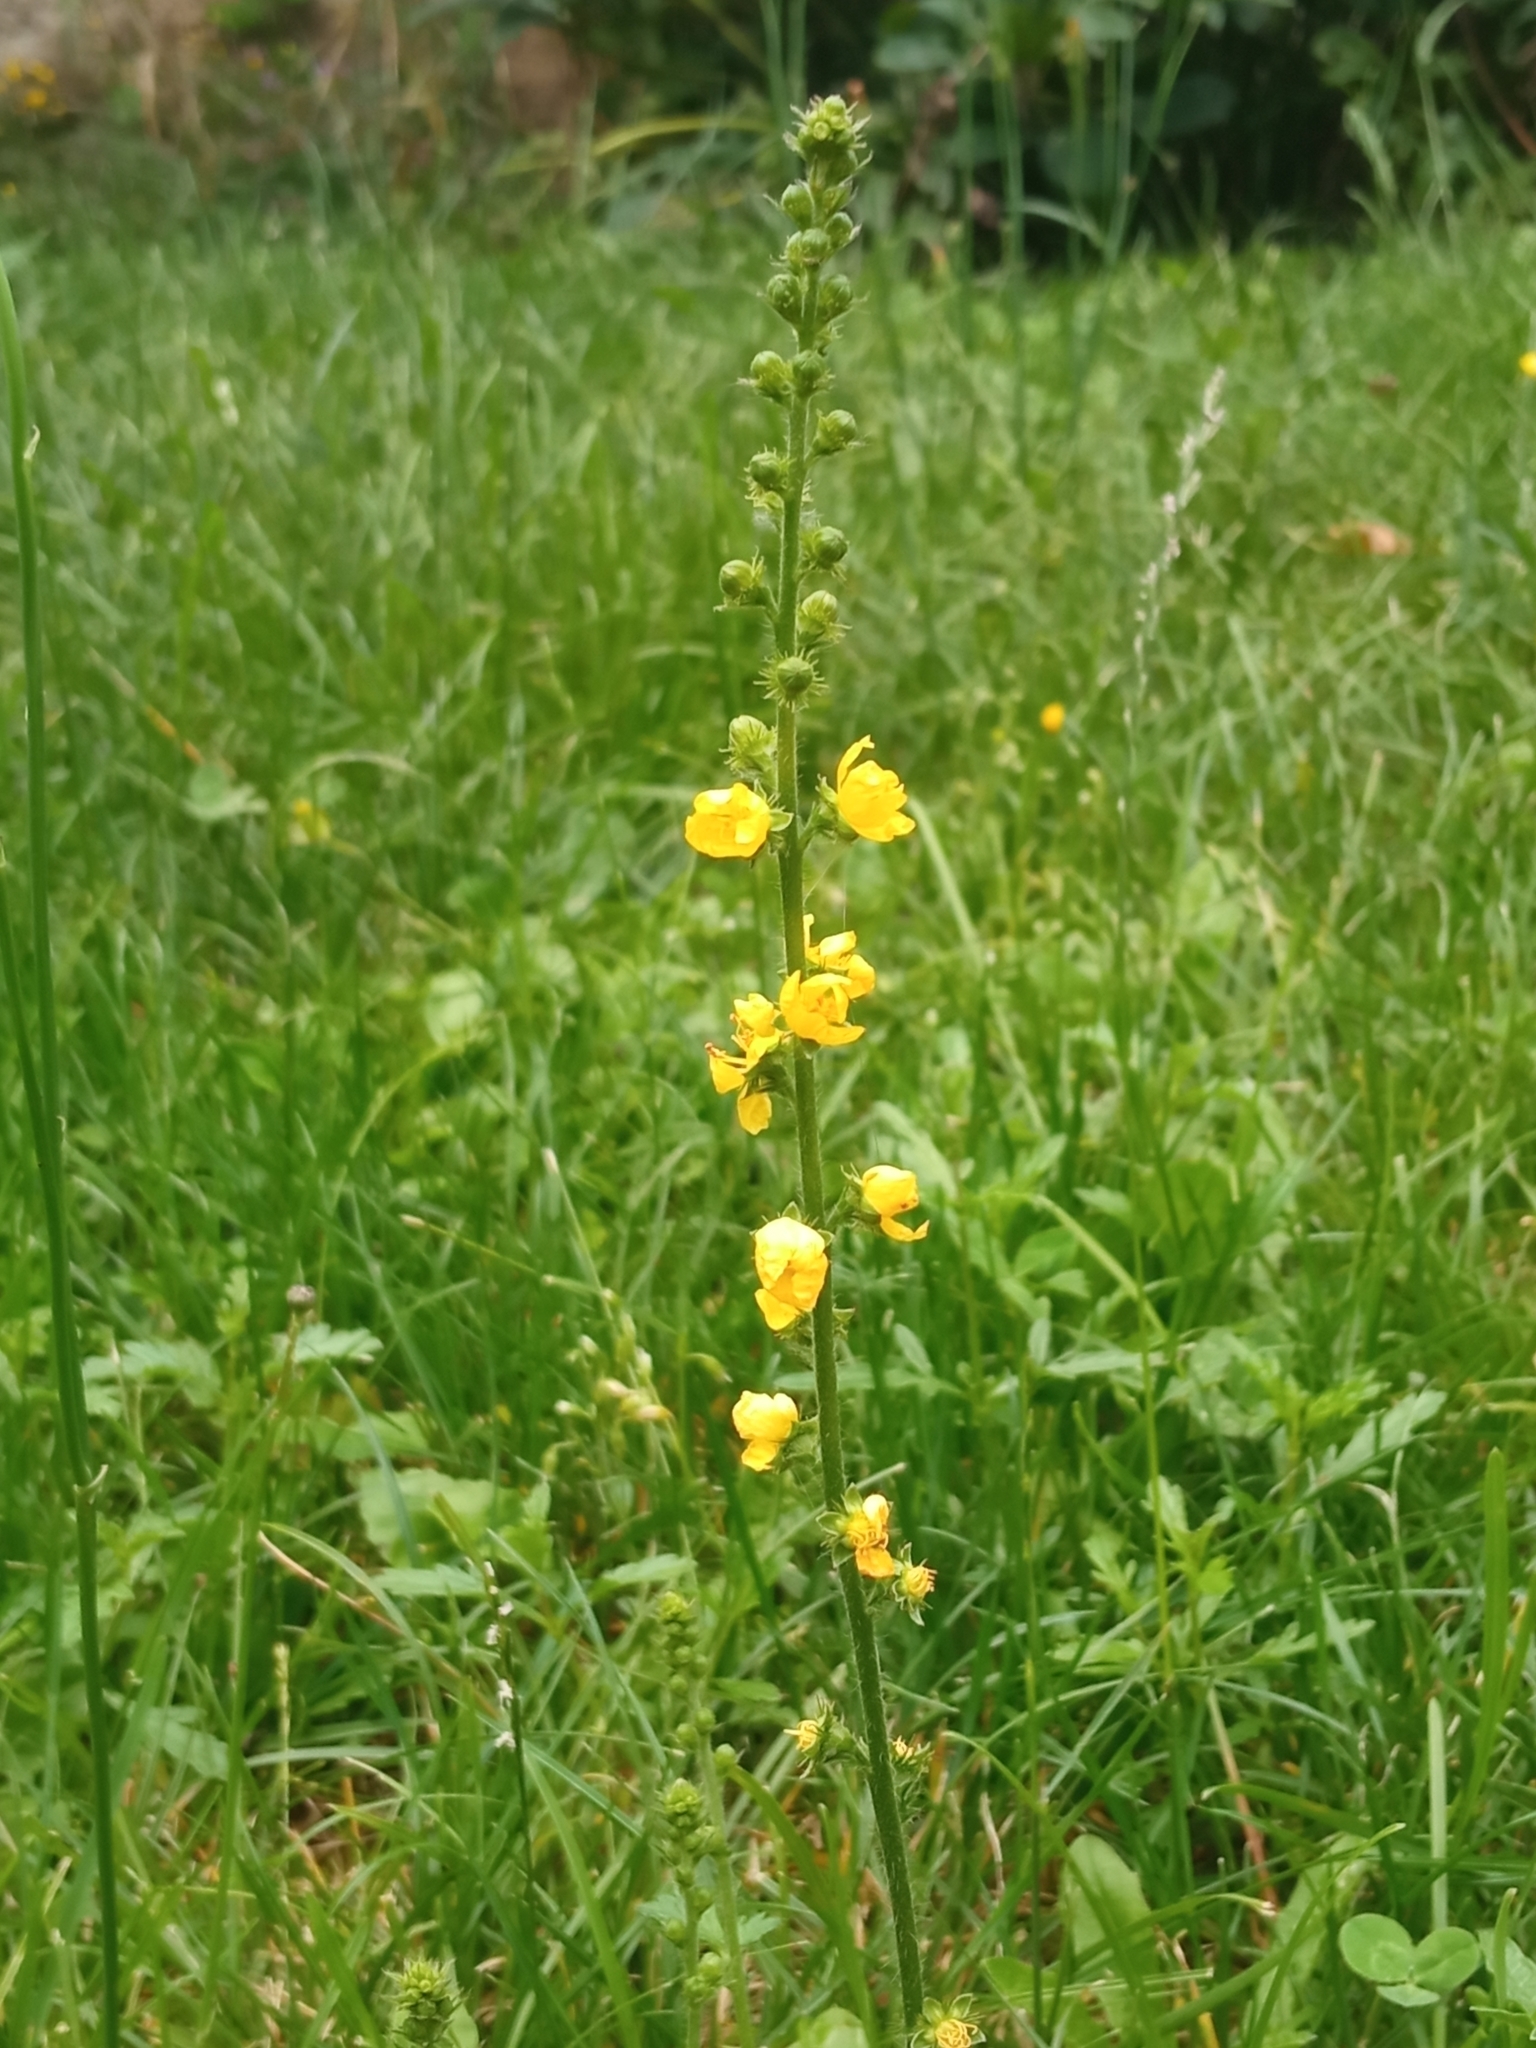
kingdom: Plantae
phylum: Tracheophyta
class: Magnoliopsida
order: Rosales
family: Rosaceae
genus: Agrimonia
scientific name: Agrimonia eupatoria
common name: Agrimony
